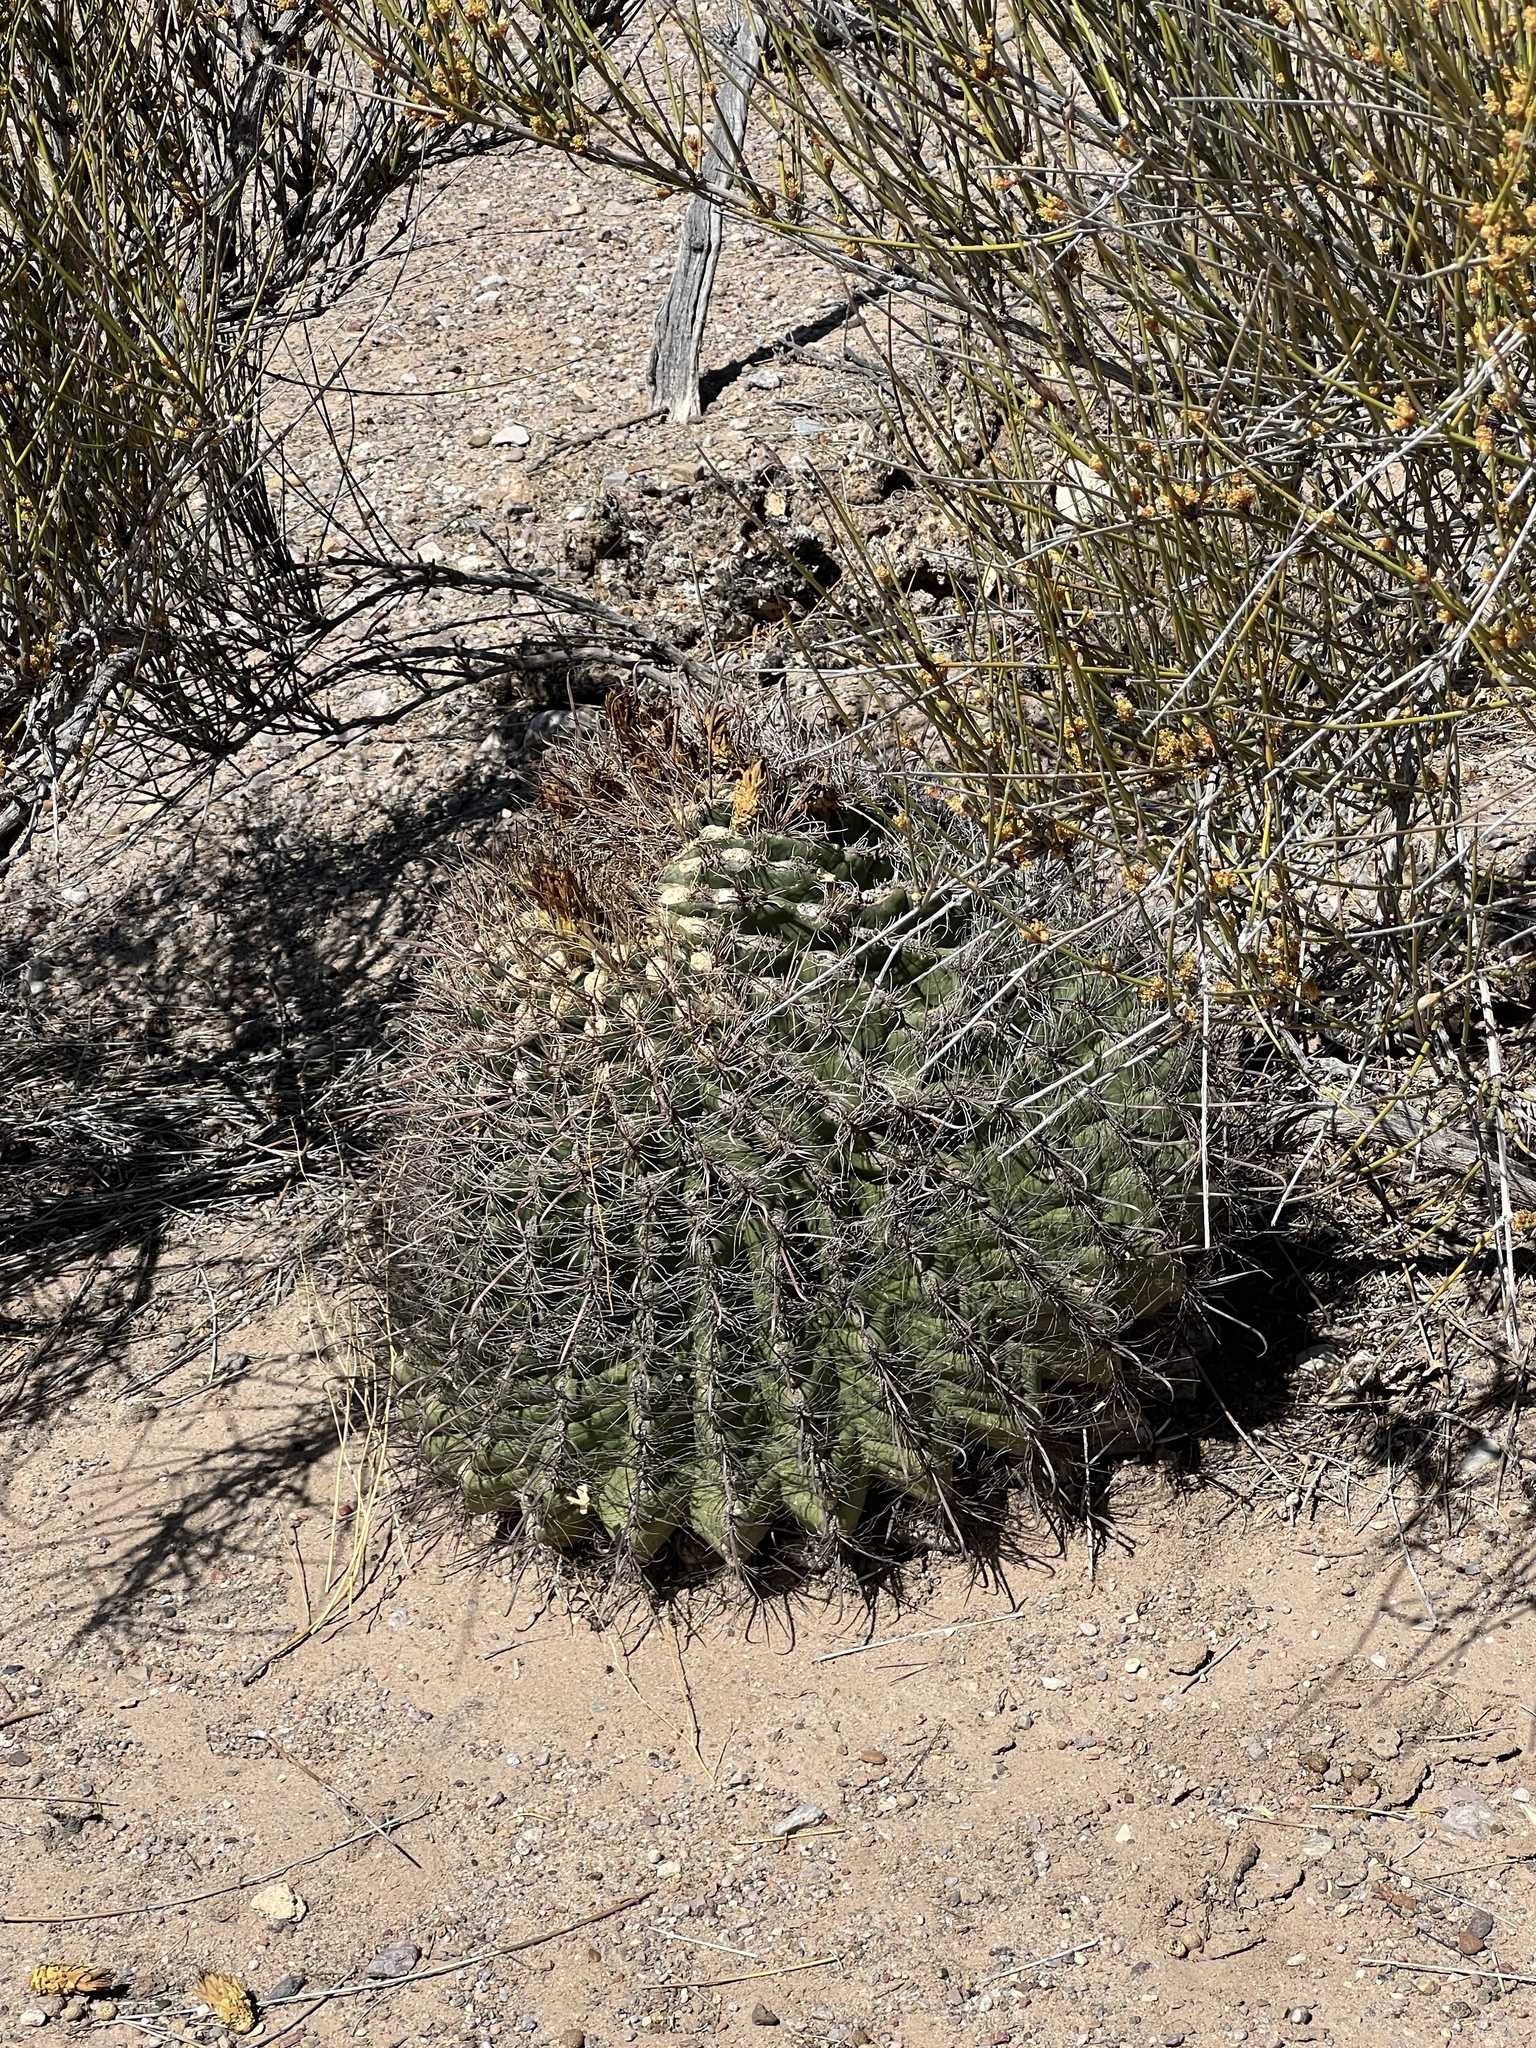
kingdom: Plantae
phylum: Tracheophyta
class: Magnoliopsida
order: Caryophyllales
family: Cactaceae
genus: Ferocactus
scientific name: Ferocactus wislizeni
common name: Candy barrel cactus
